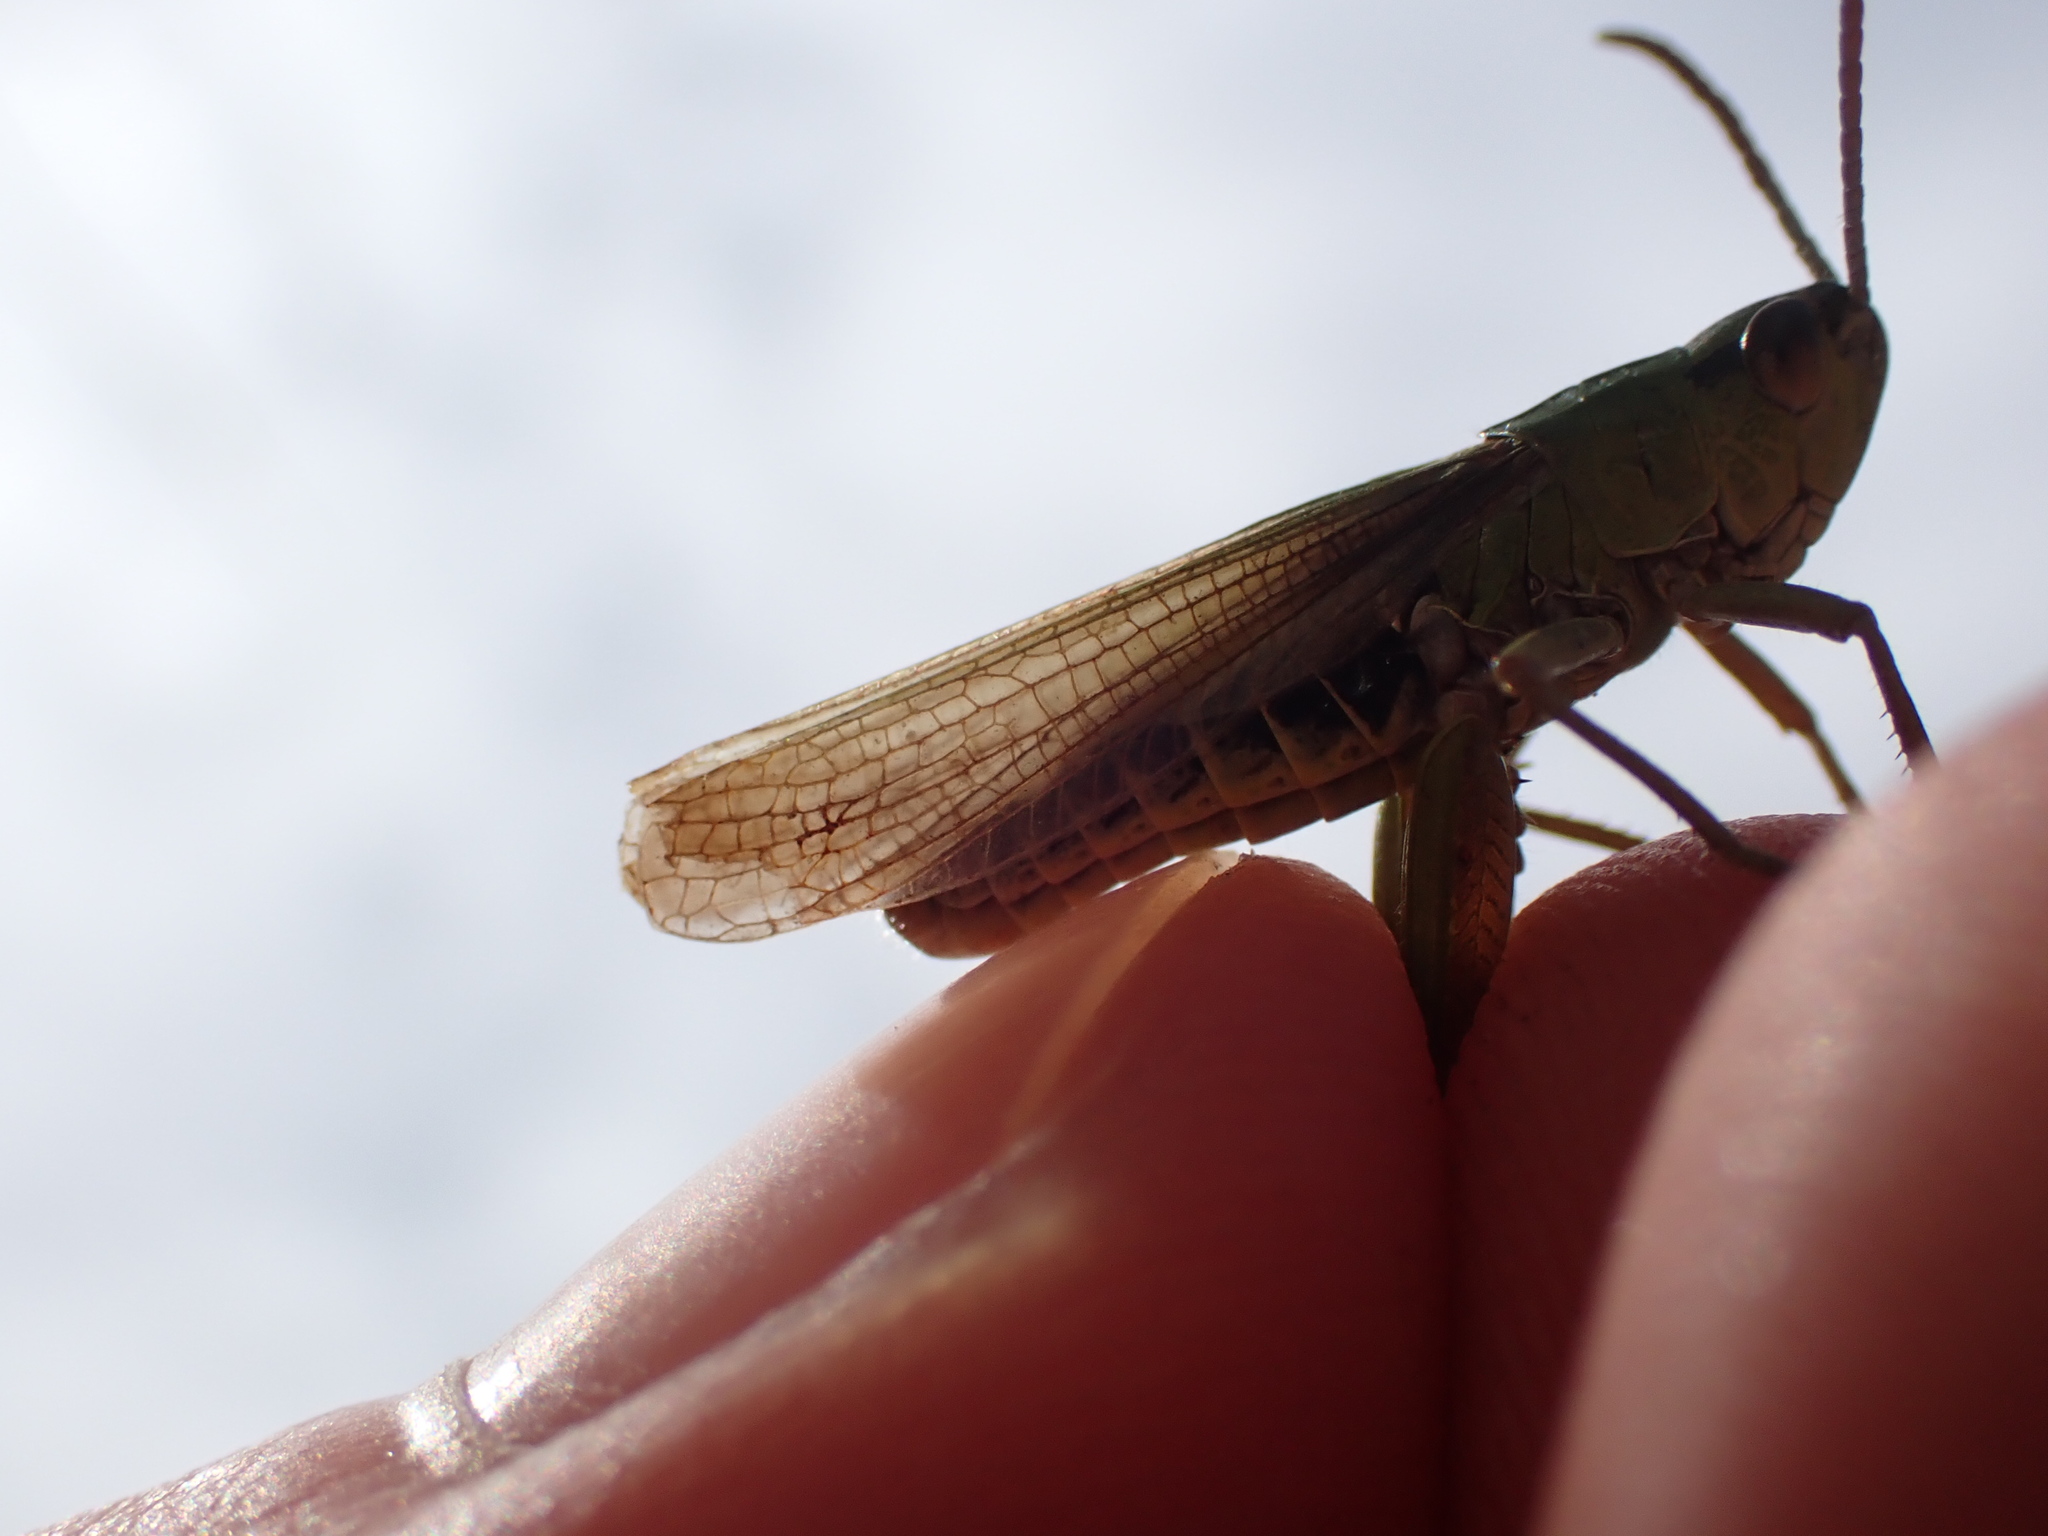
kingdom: Animalia
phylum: Arthropoda
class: Insecta
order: Orthoptera
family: Acrididae
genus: Pseudochorthippus
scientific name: Pseudochorthippus parallelus
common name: Meadow grasshopper
